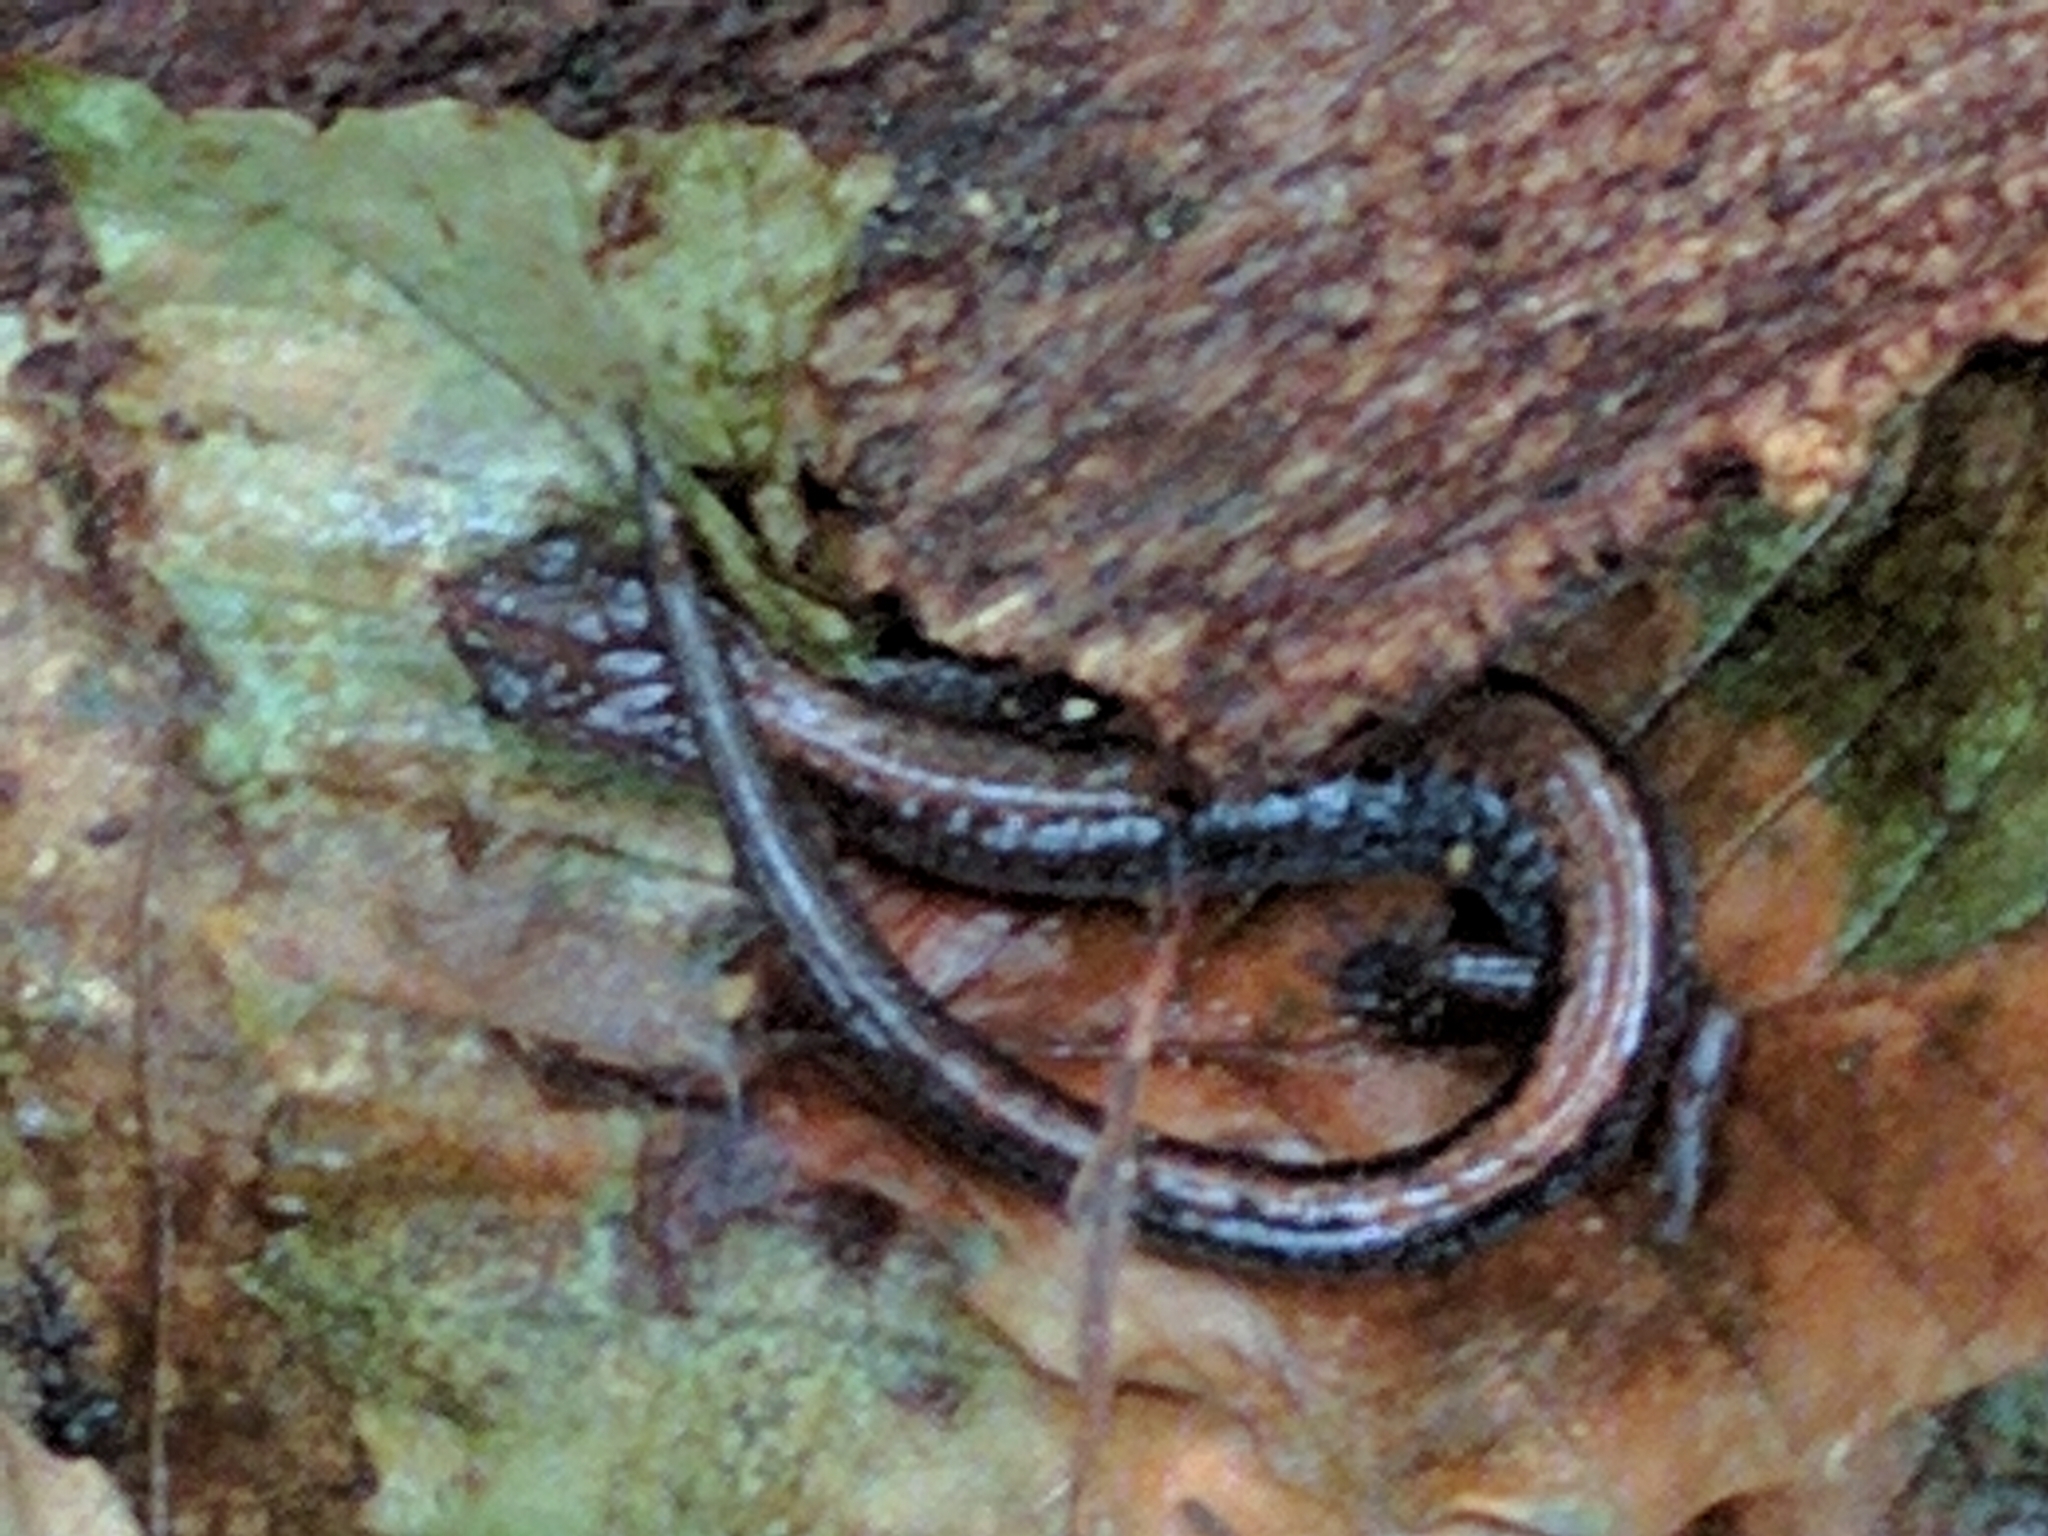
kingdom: Animalia
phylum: Chordata
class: Amphibia
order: Caudata
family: Plethodontidae
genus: Plethodon
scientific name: Plethodon cinereus
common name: Redback salamander
